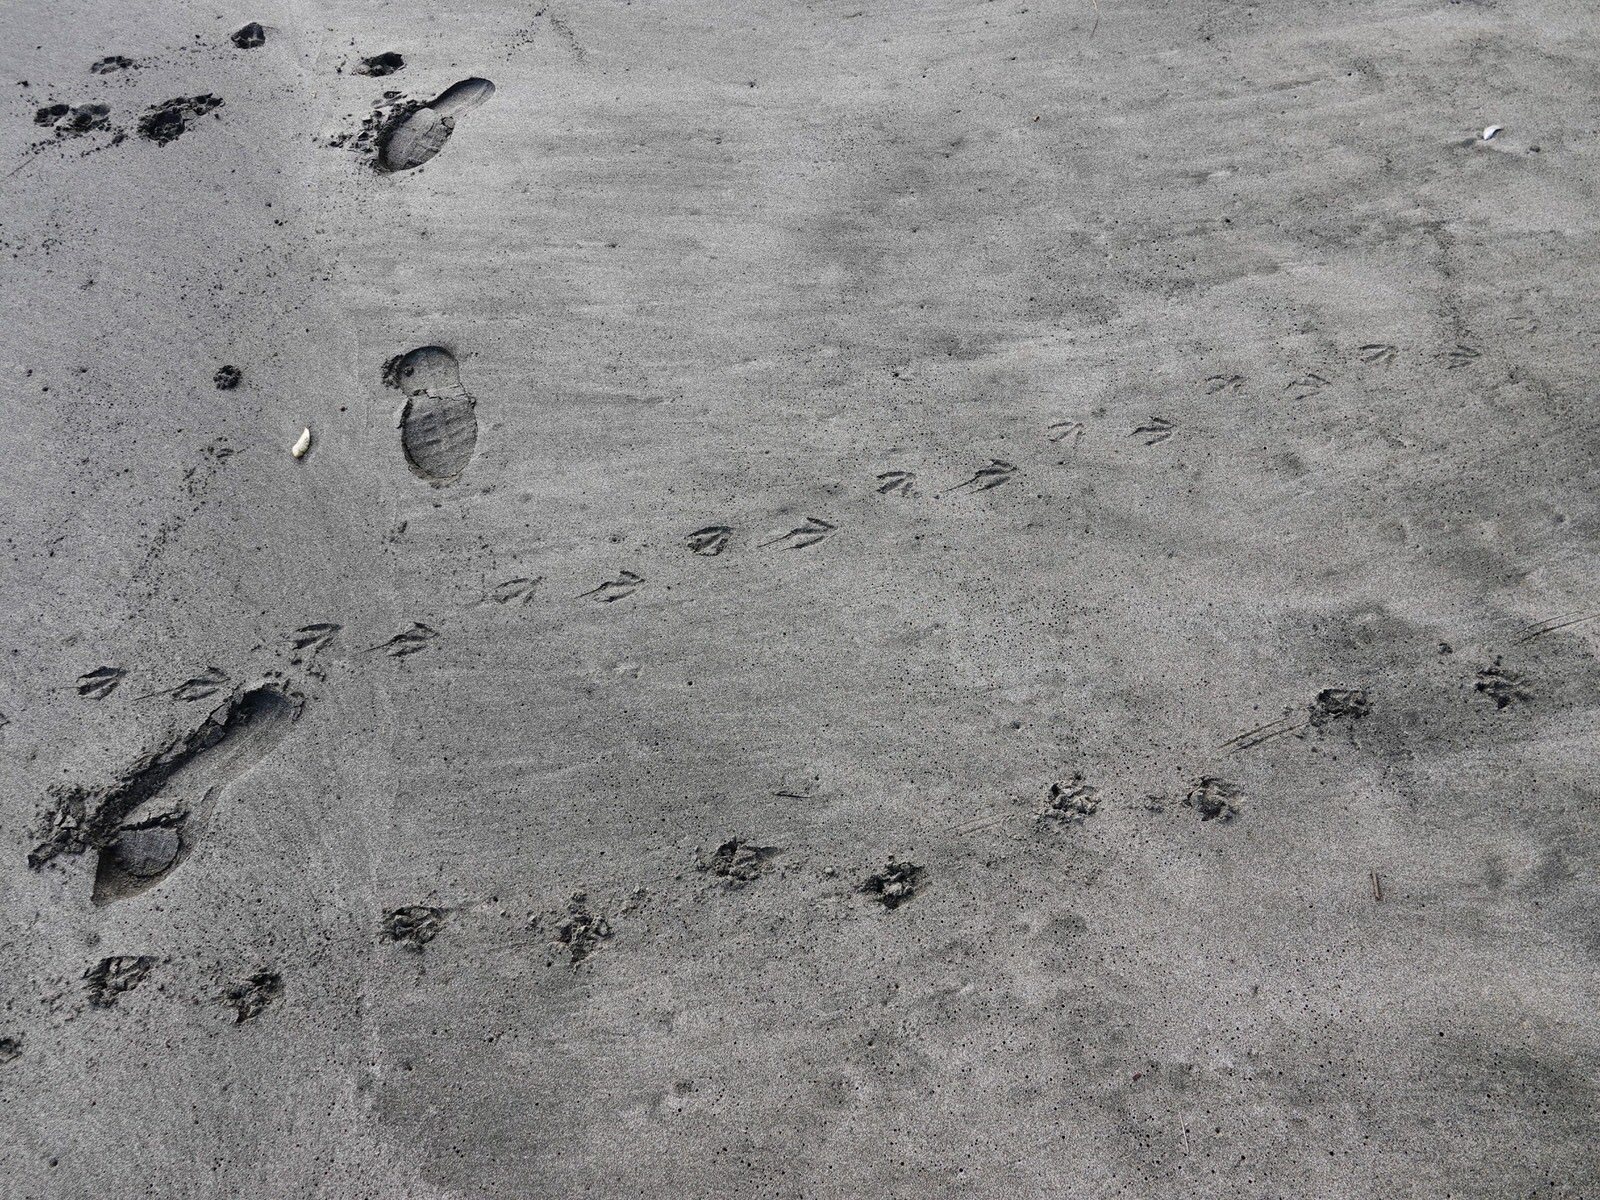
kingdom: Animalia
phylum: Chordata
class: Aves
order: Sphenisciformes
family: Spheniscidae
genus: Eudyptula
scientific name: Eudyptula minor
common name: Little penguin
